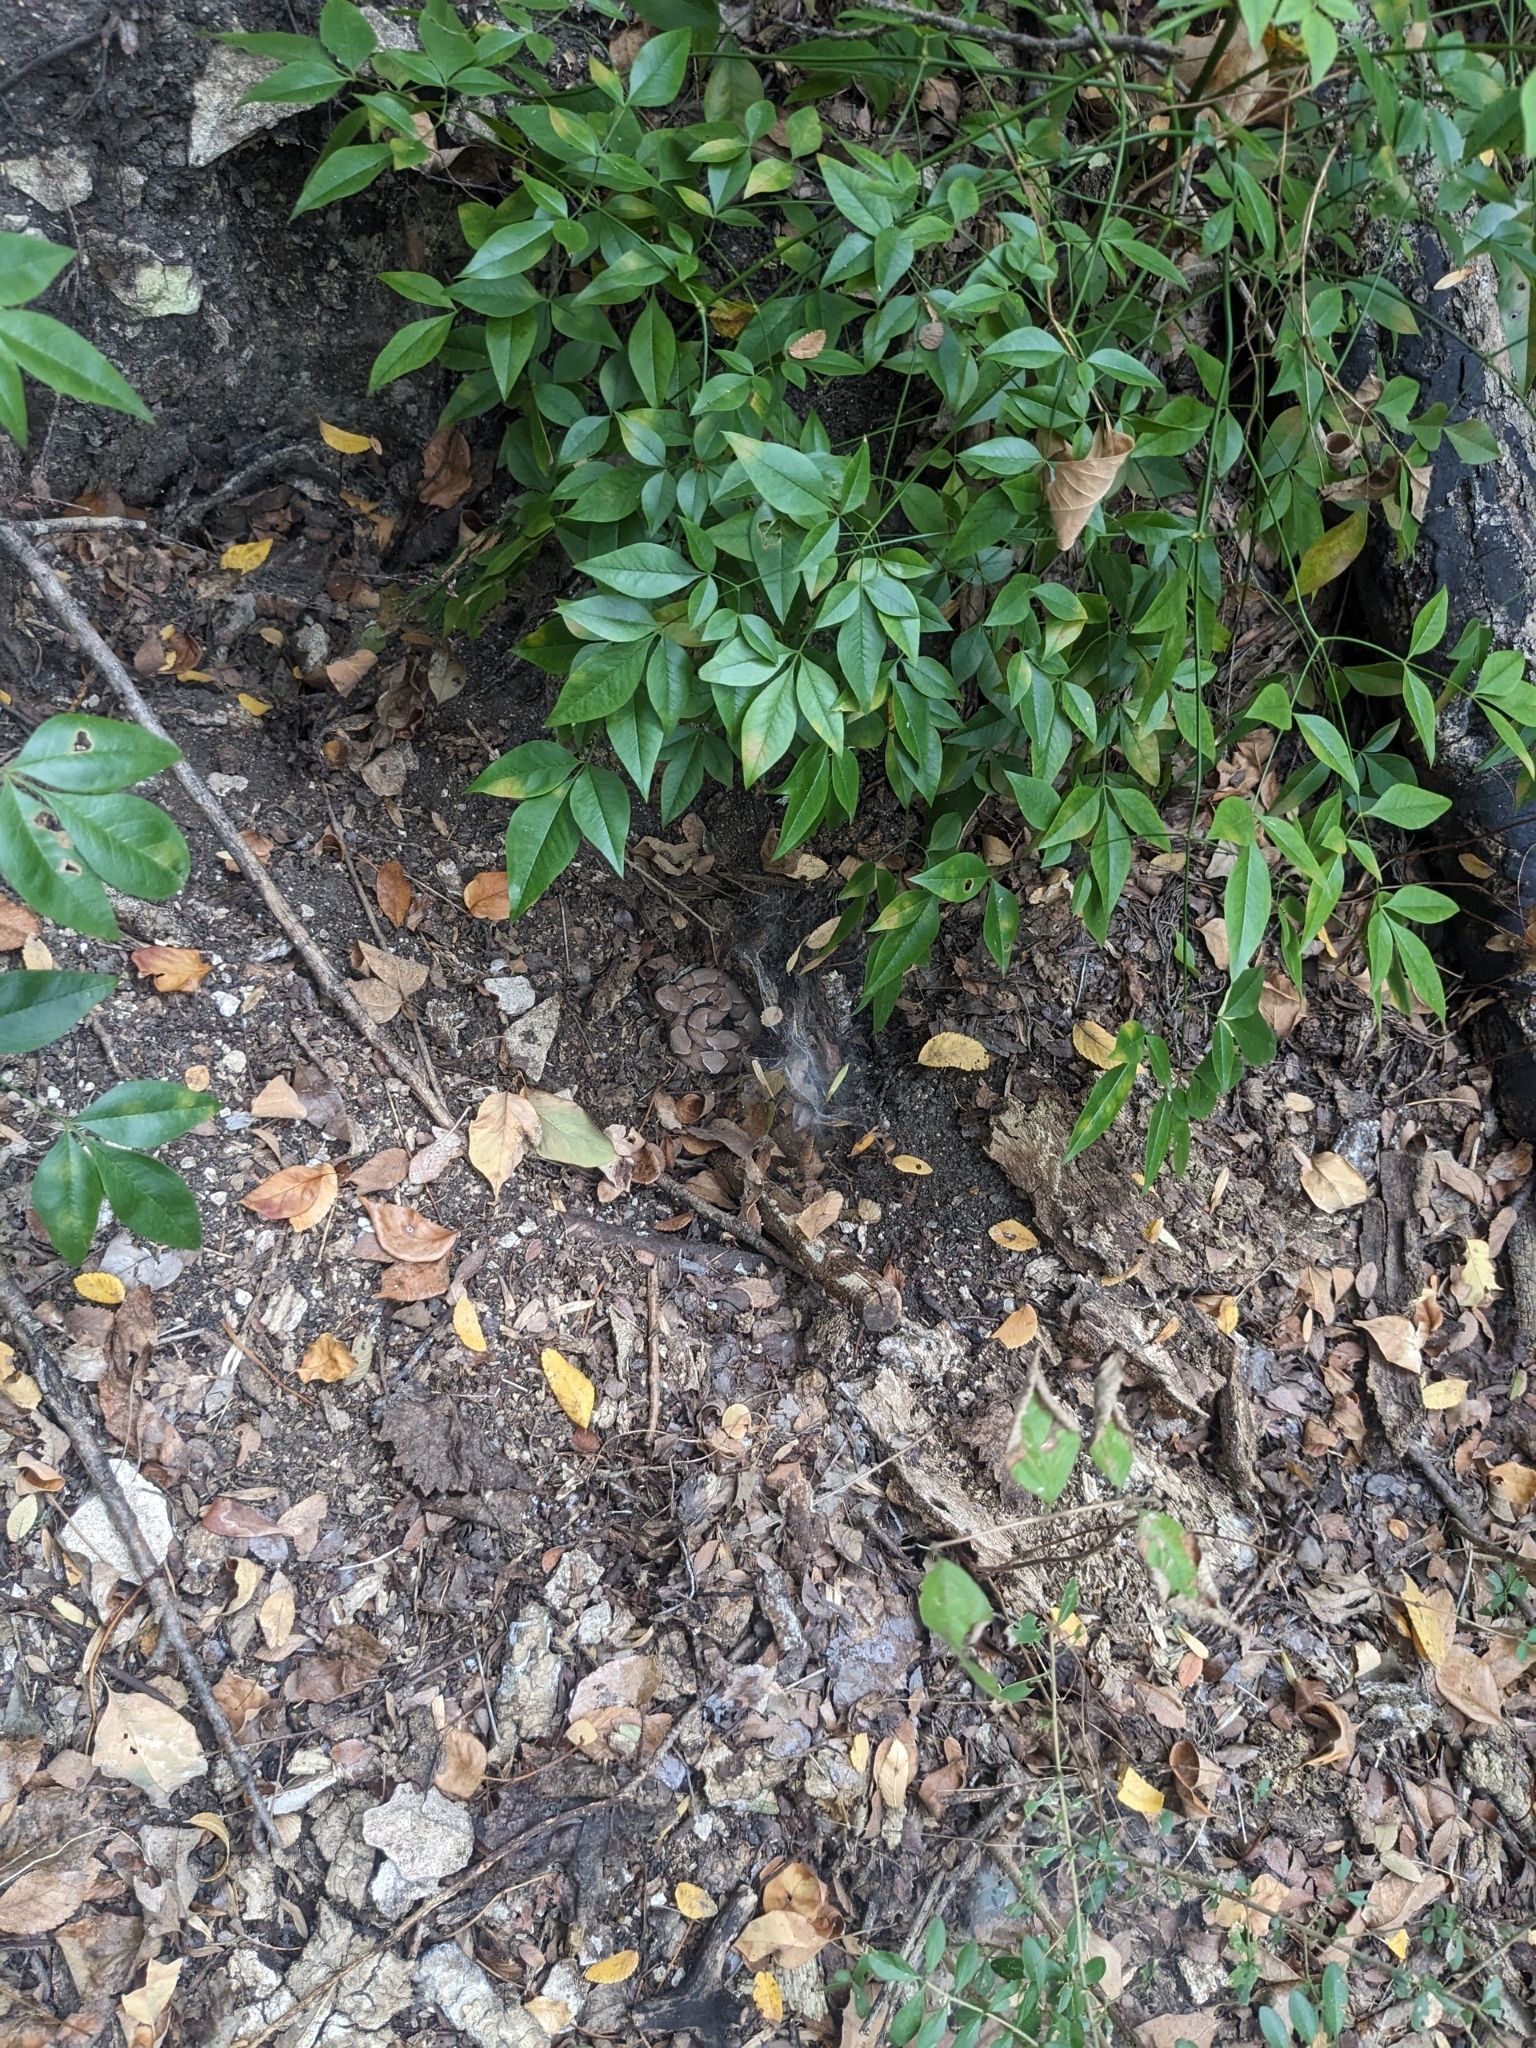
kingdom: Animalia
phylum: Chordata
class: Squamata
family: Viperidae
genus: Agkistrodon
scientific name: Agkistrodon contortrix
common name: Northern copperhead
